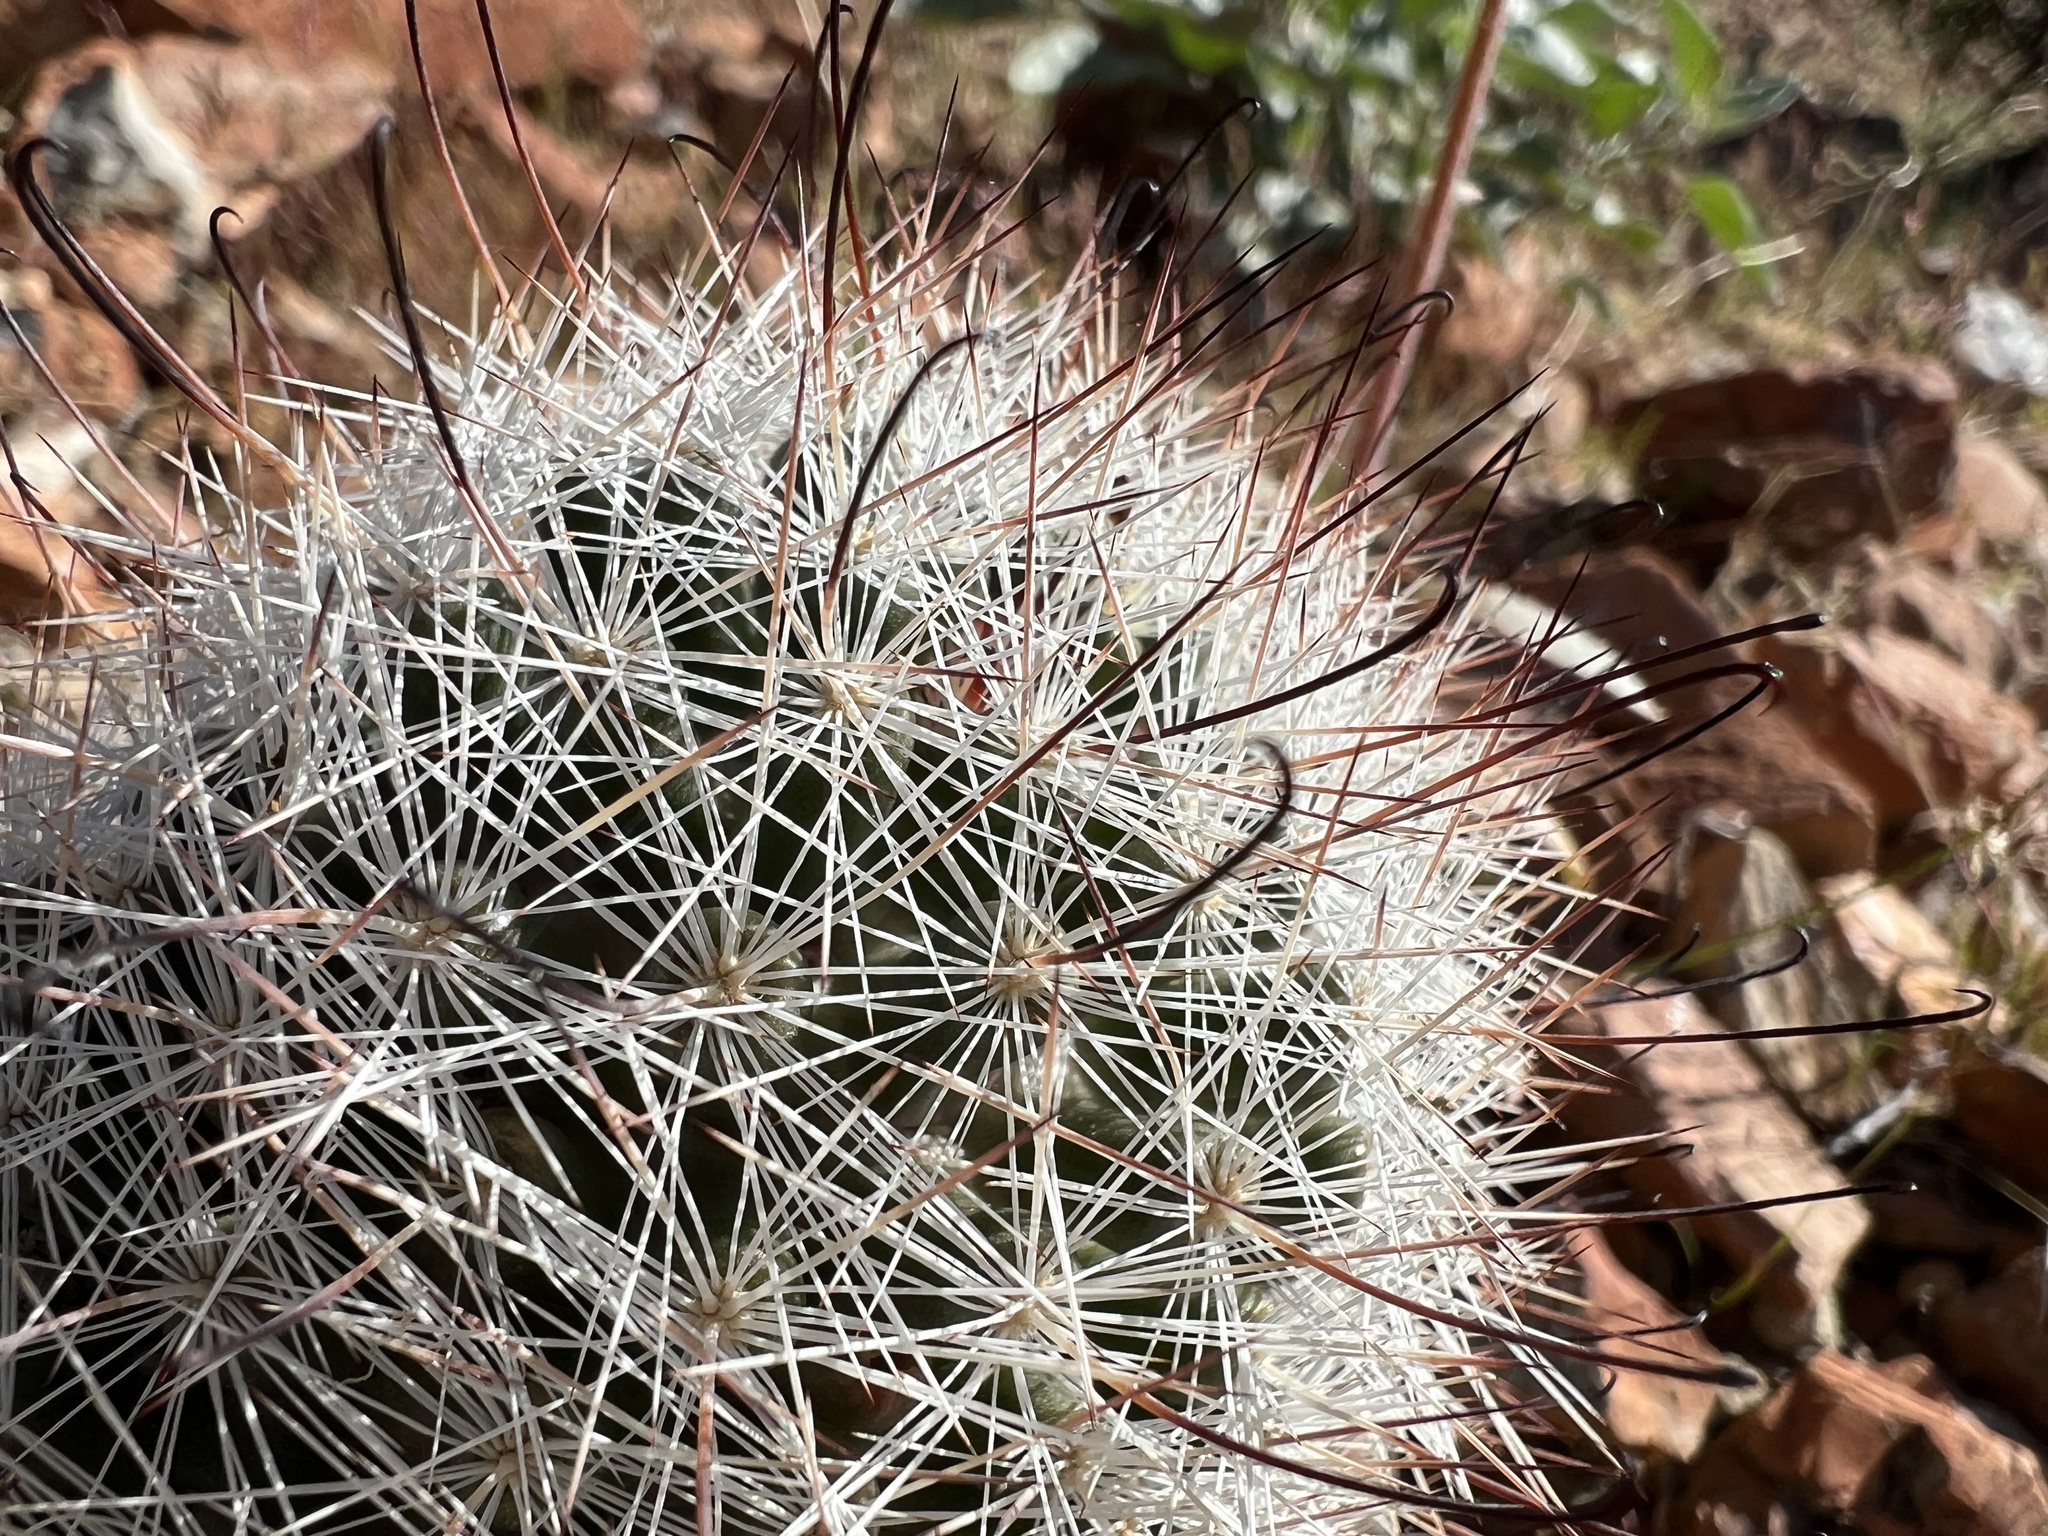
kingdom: Plantae
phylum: Tracheophyta
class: Magnoliopsida
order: Caryophyllales
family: Cactaceae
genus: Cochemiea
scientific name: Cochemiea tetrancistra
